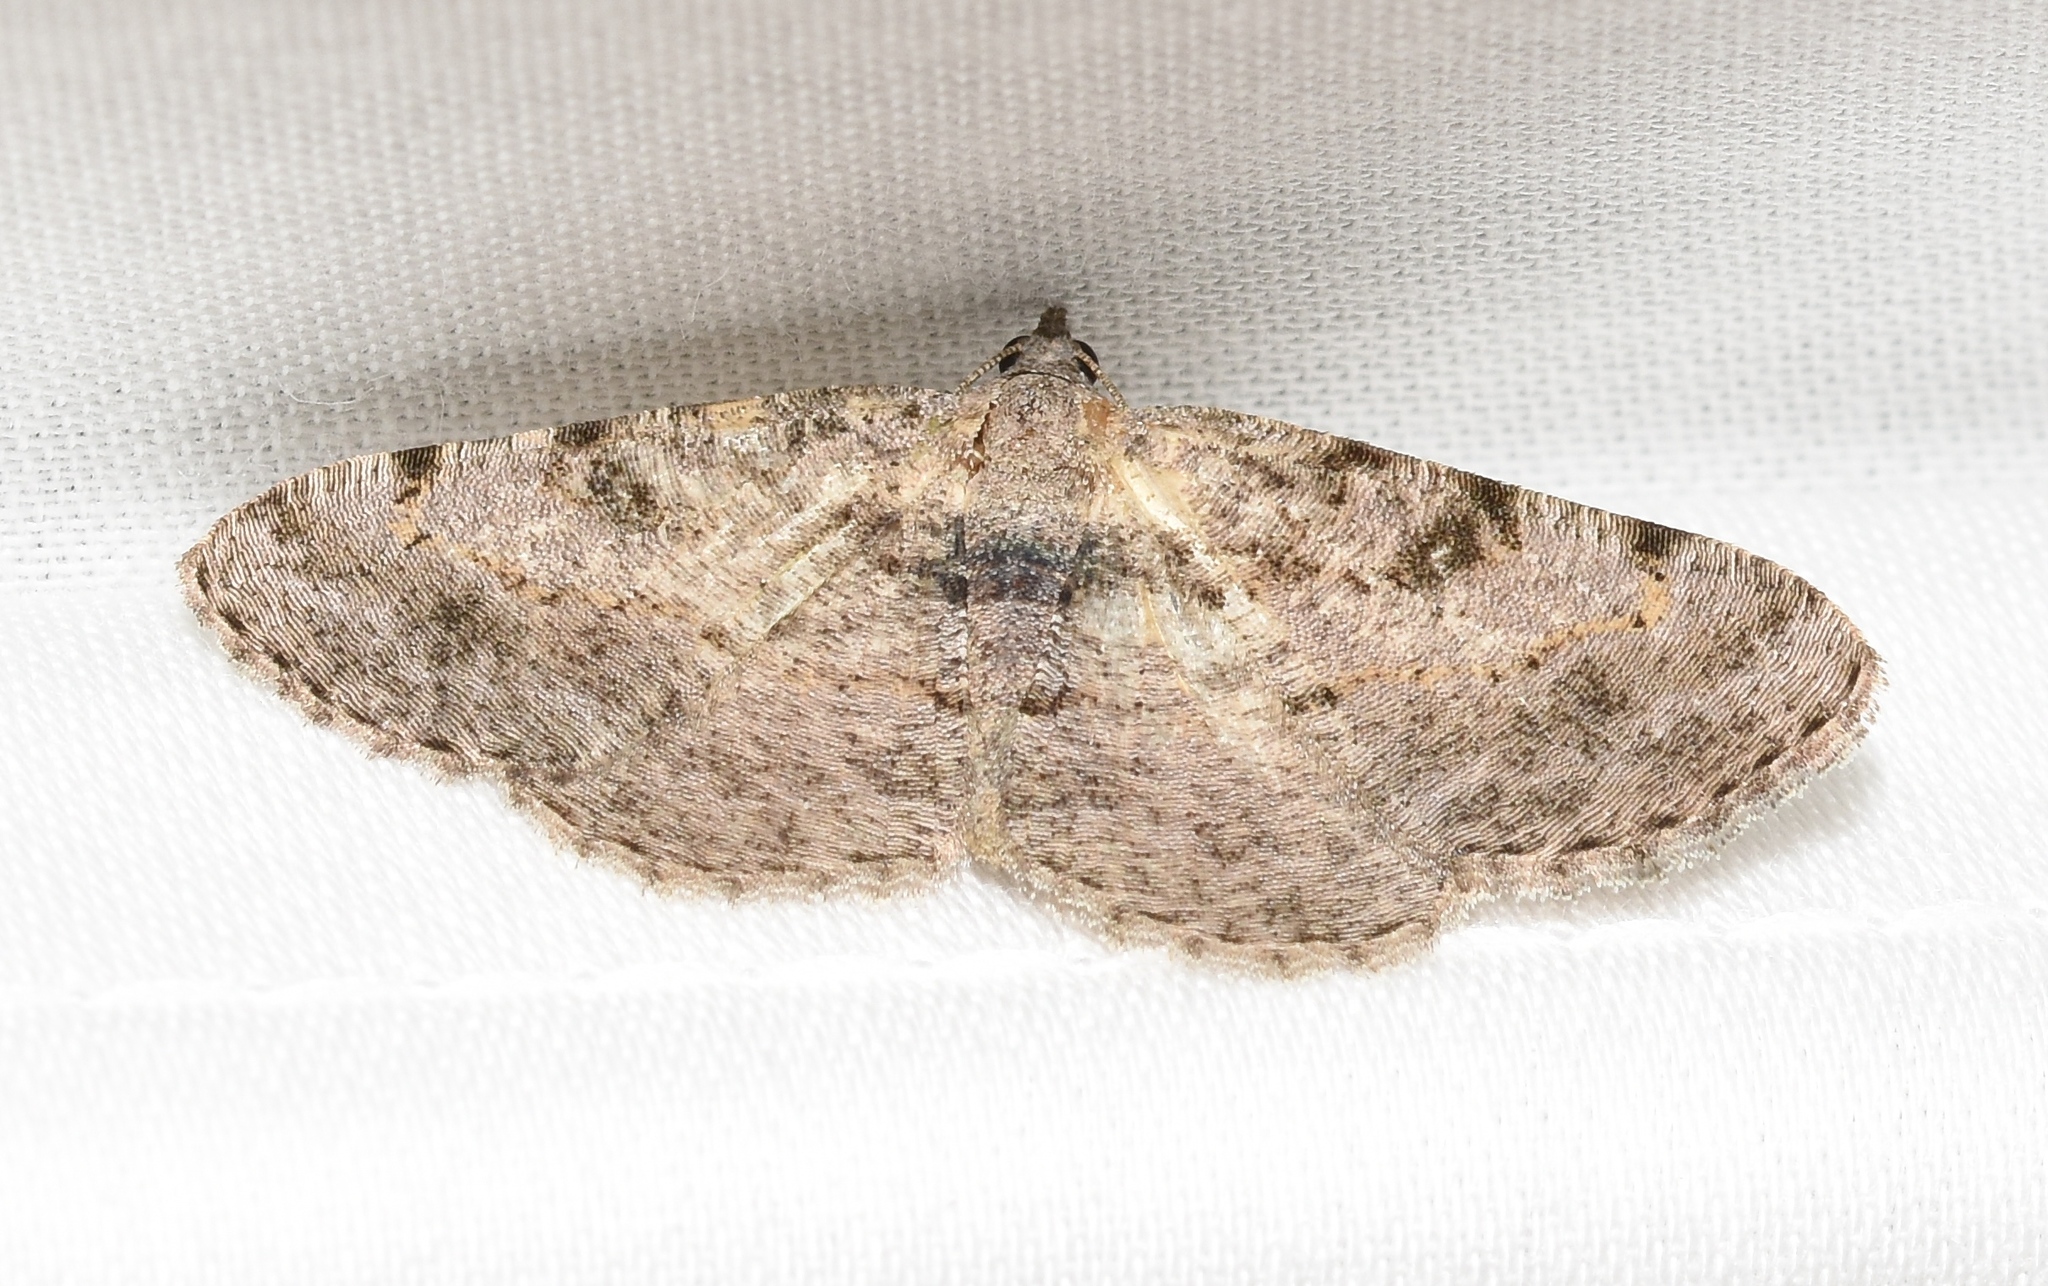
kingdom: Animalia
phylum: Arthropoda
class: Insecta
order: Lepidoptera
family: Geometridae
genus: Digrammia
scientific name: Digrammia gnophosaria
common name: Hollow-spotted angle
